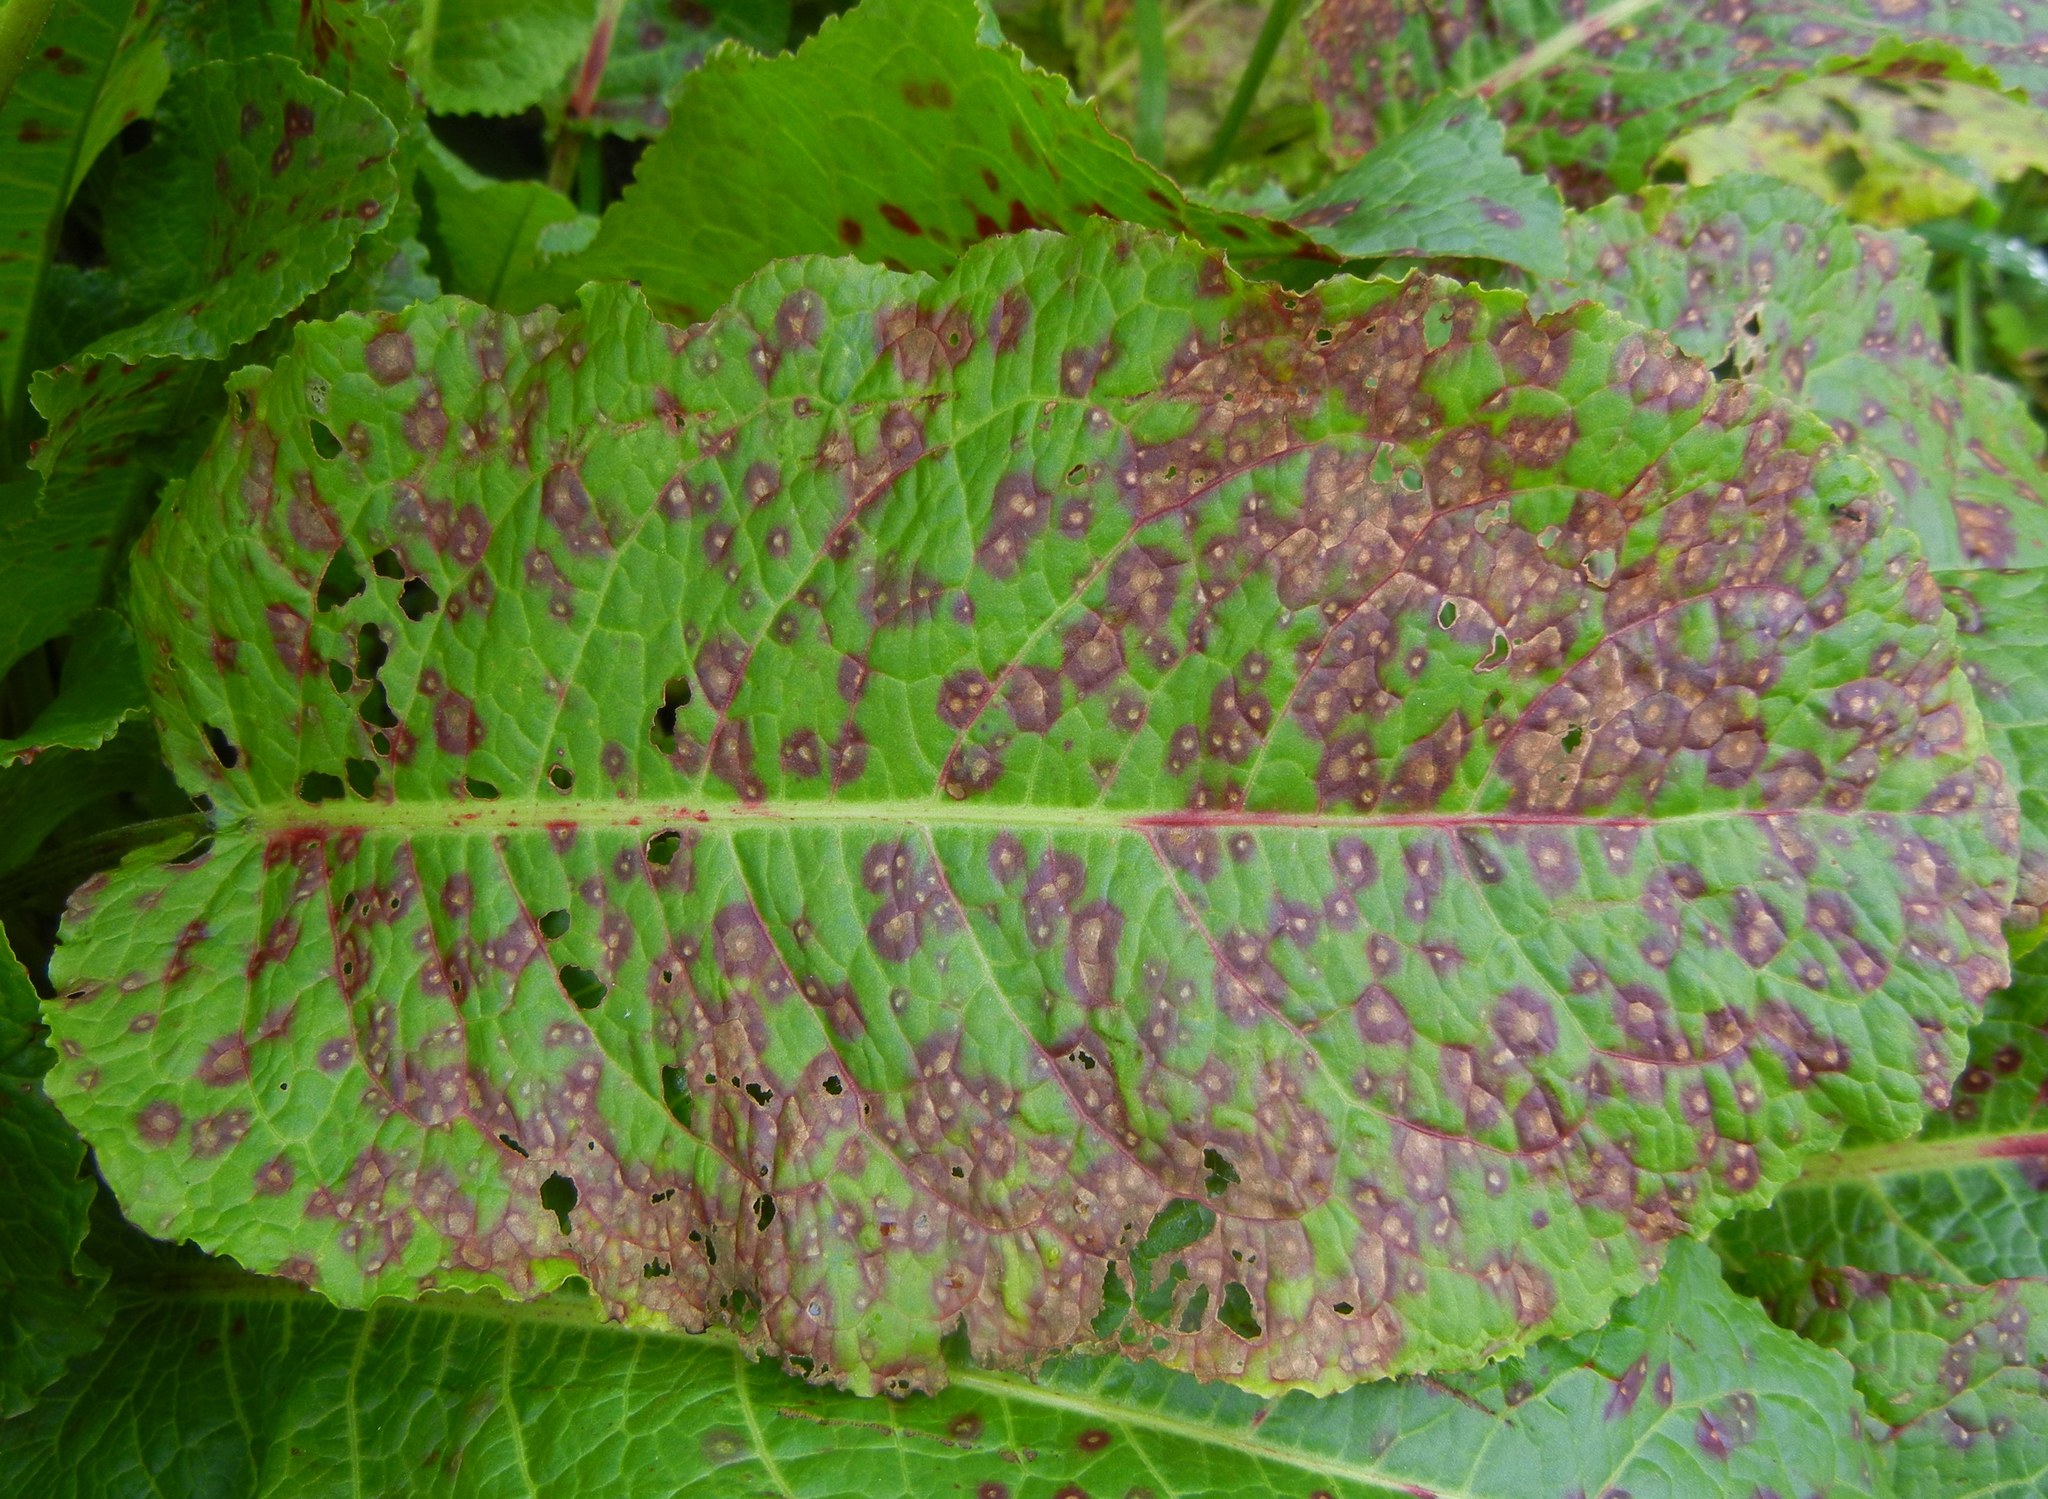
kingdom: Fungi
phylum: Ascomycota
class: Dothideomycetes
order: Mycosphaerellales
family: Mycosphaerellaceae
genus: Ramularia
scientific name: Ramularia rubella
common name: Red dock spot
